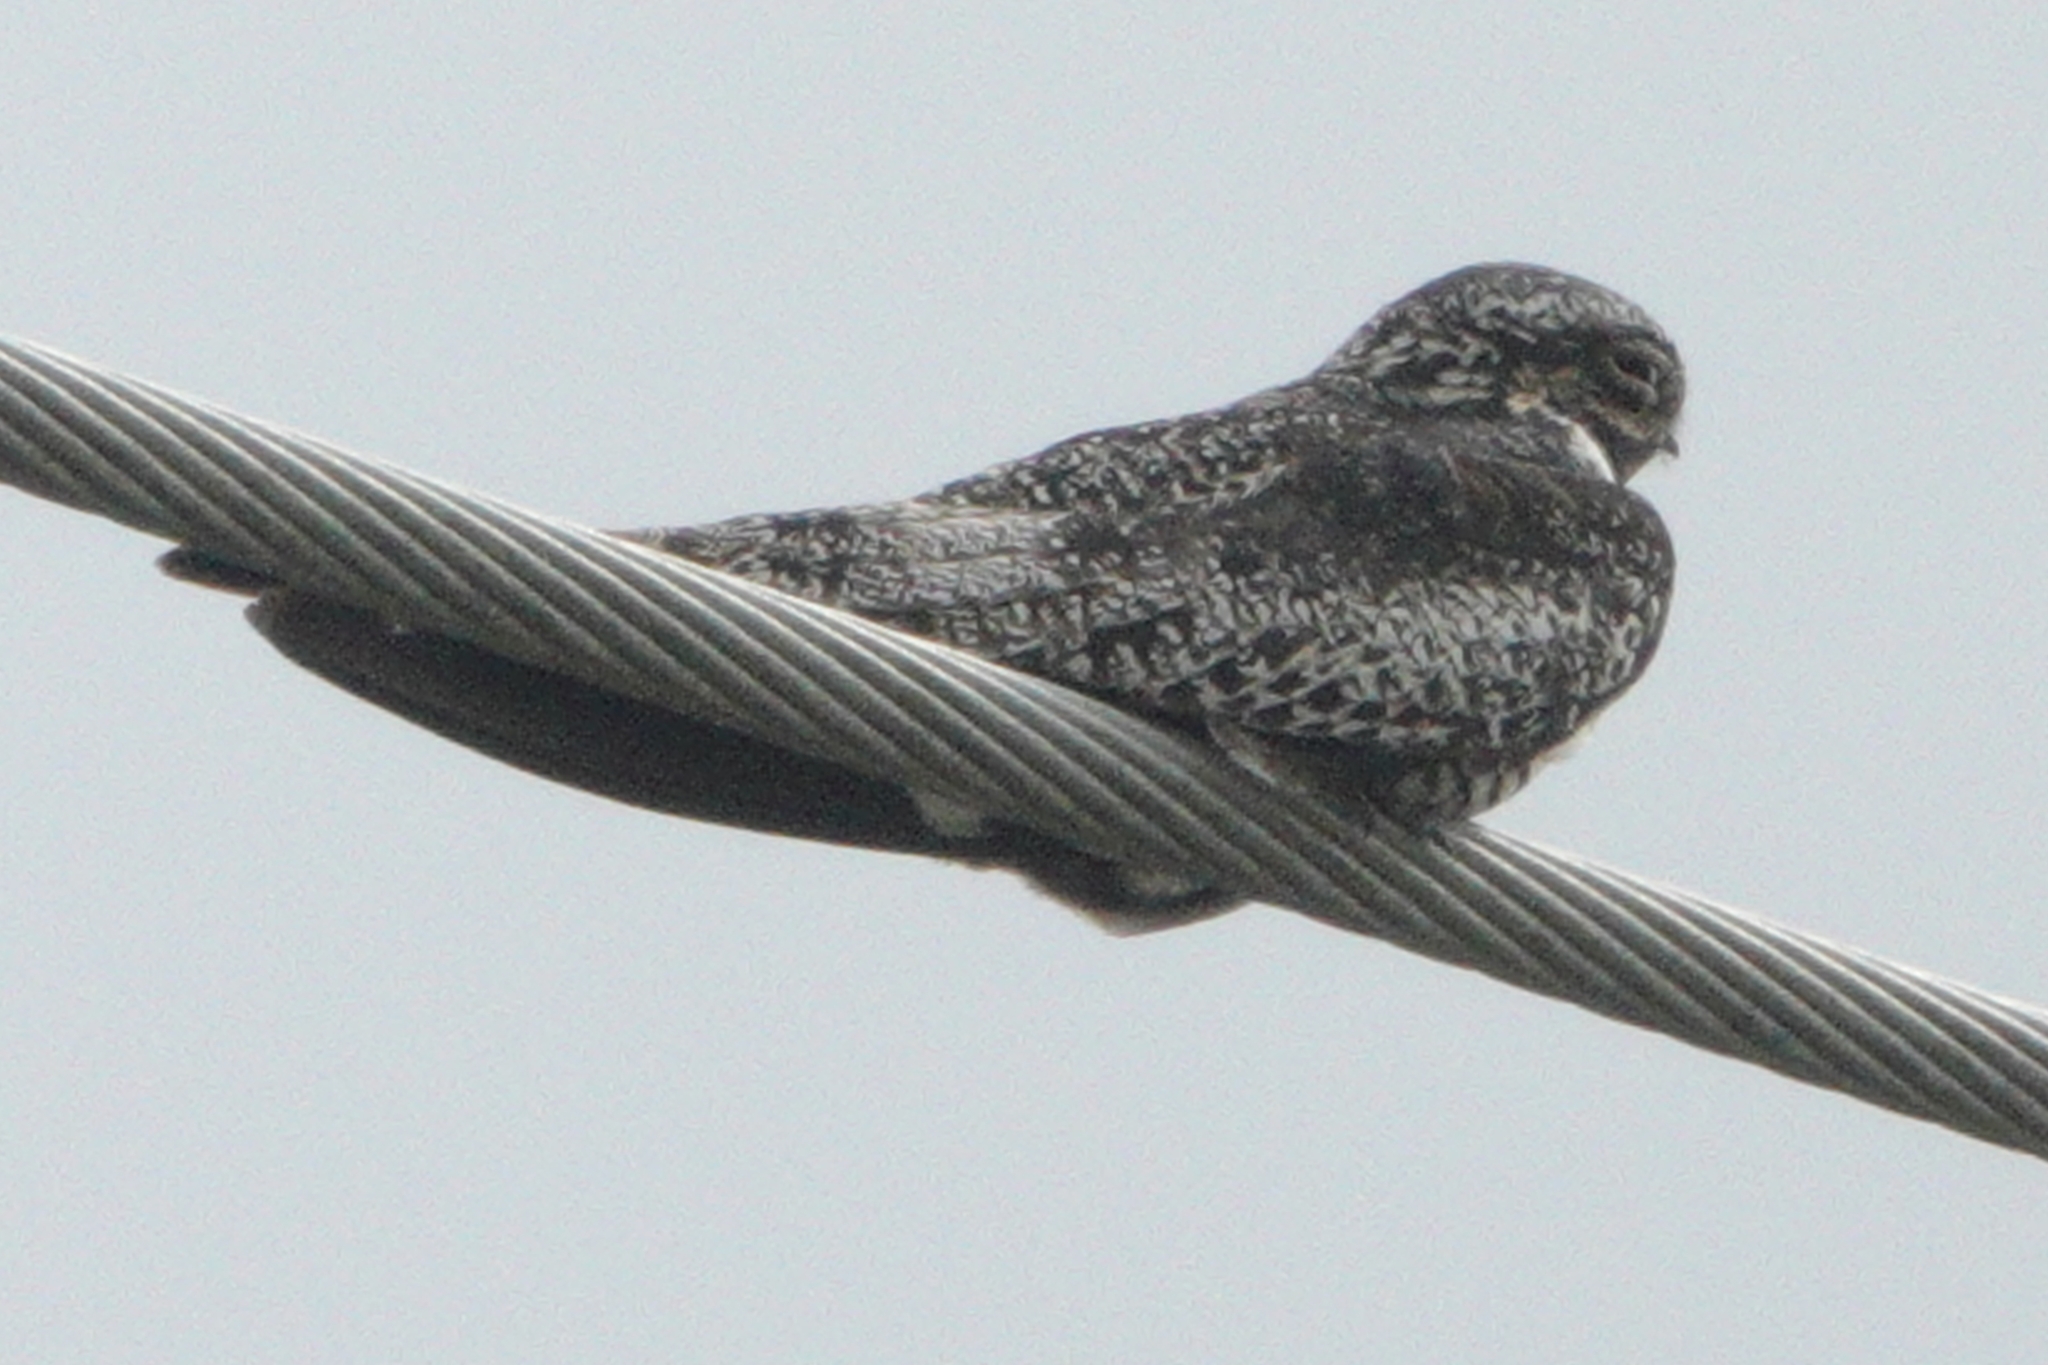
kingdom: Animalia
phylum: Chordata
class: Aves
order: Caprimulgiformes
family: Caprimulgidae
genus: Chordeiles
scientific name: Chordeiles minor
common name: Common nighthawk
